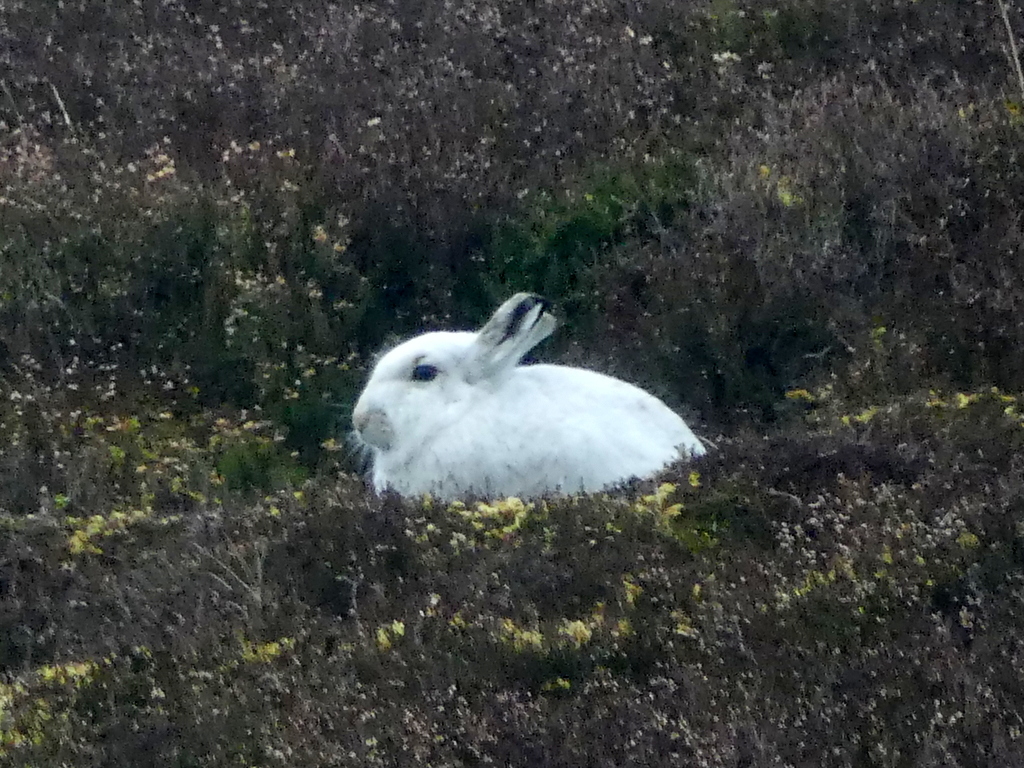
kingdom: Animalia
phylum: Chordata
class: Mammalia
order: Lagomorpha
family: Leporidae
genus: Lepus
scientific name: Lepus timidus
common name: Mountain hare
